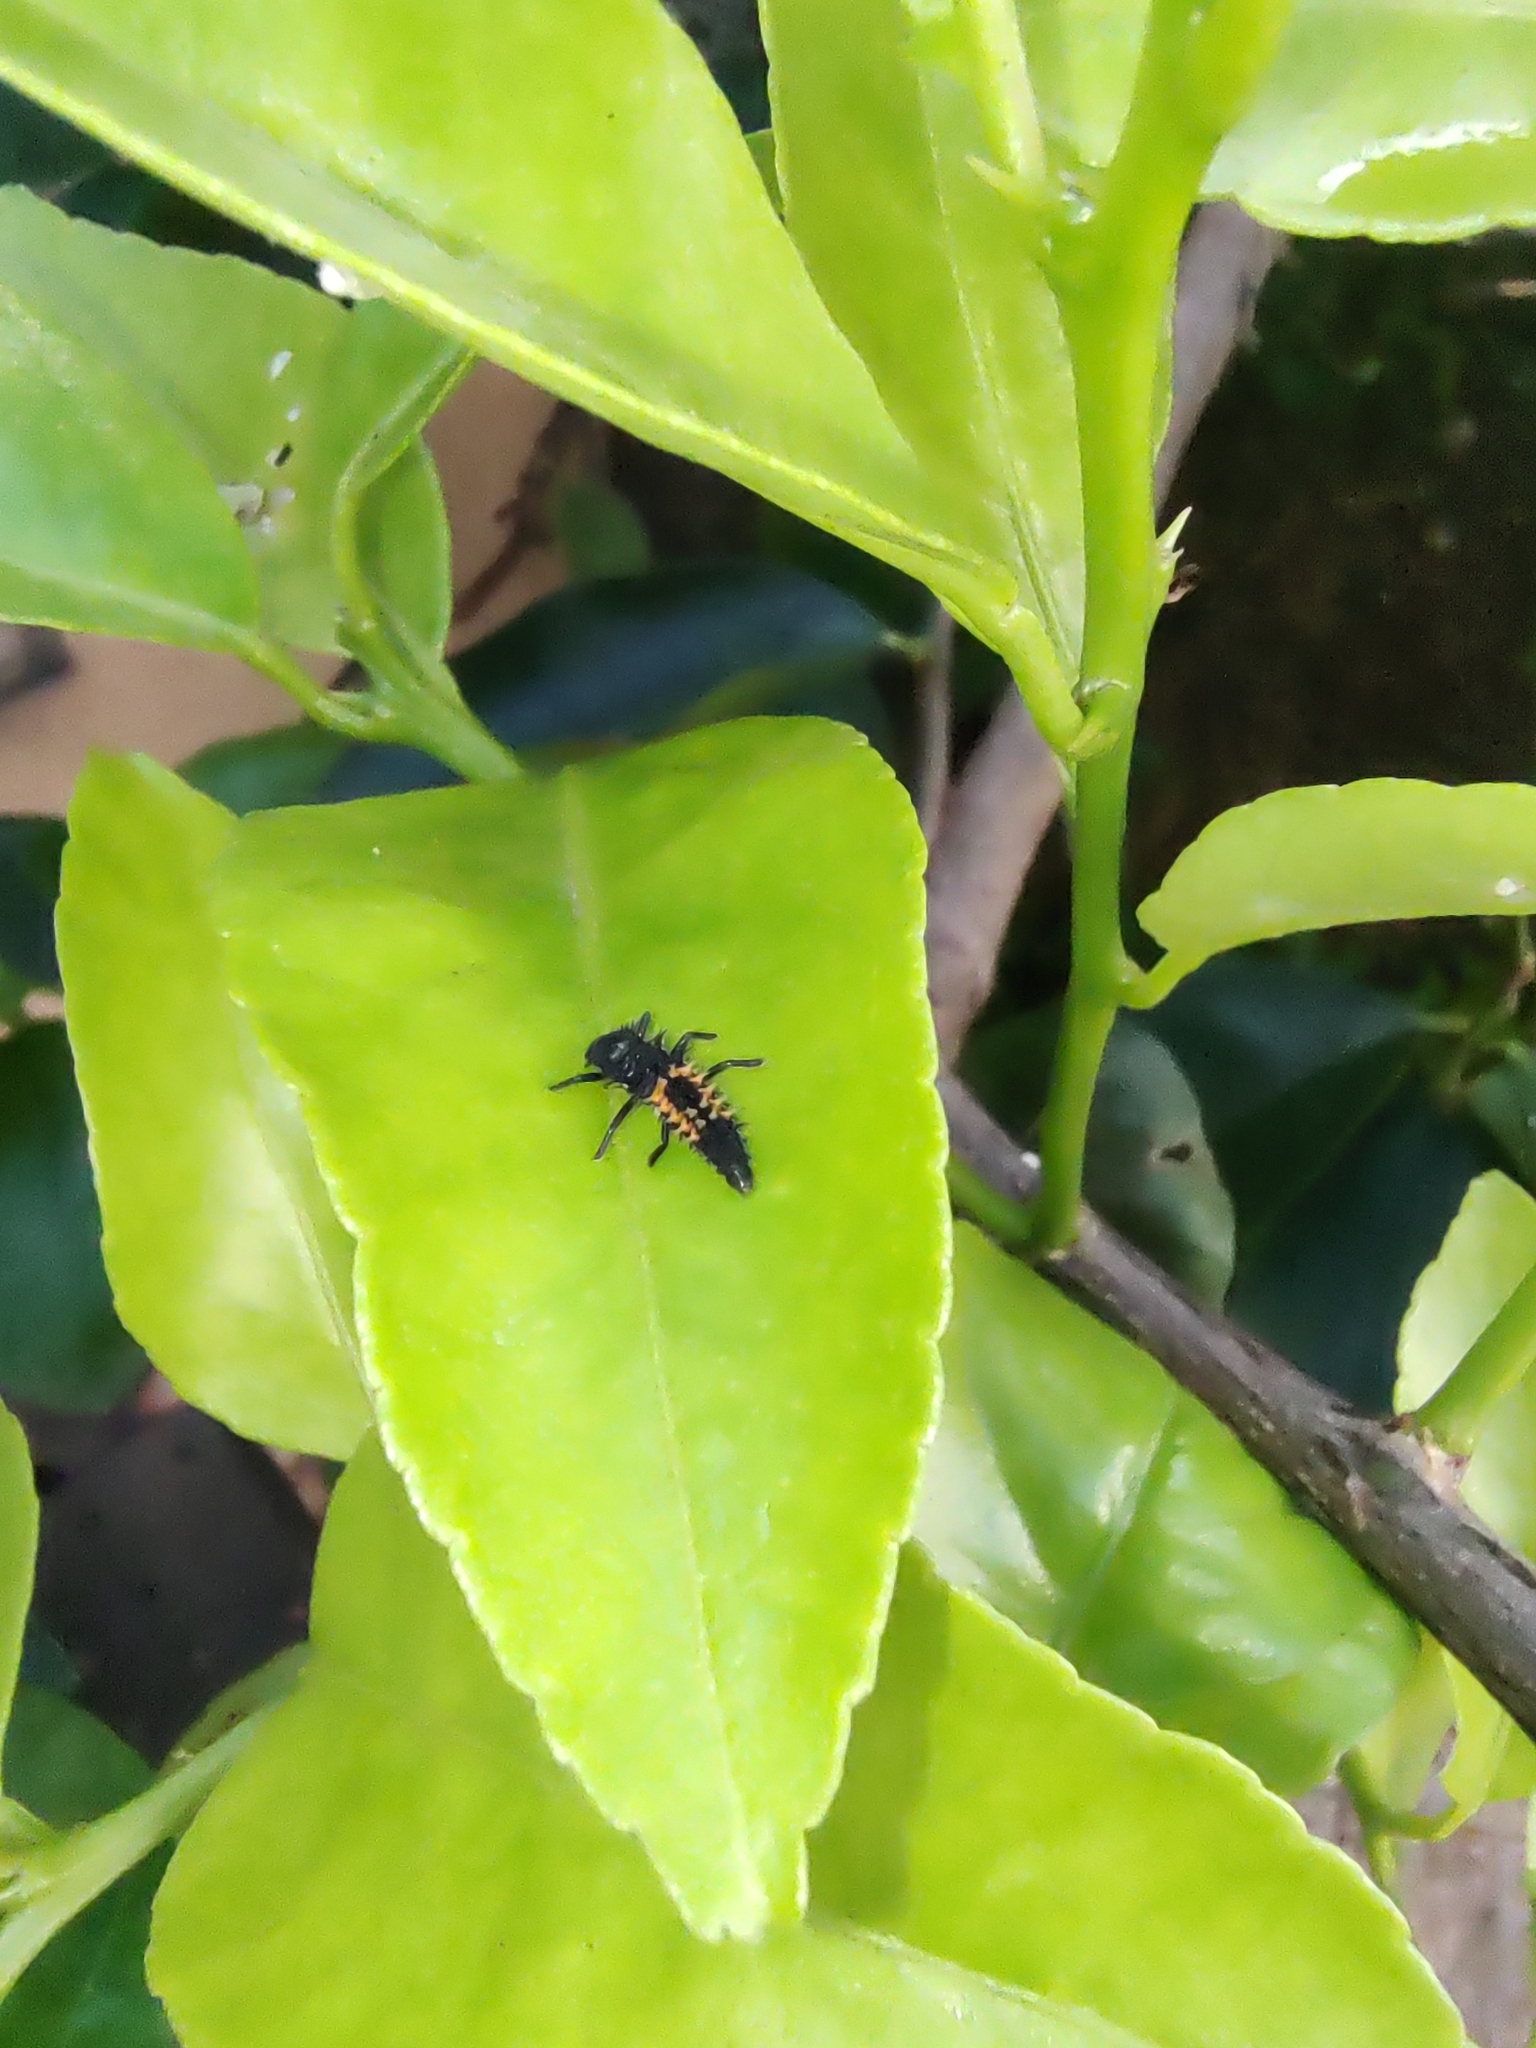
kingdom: Animalia
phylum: Arthropoda
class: Insecta
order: Coleoptera
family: Coccinellidae
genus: Harmonia
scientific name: Harmonia axyridis
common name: Harlequin ladybird
